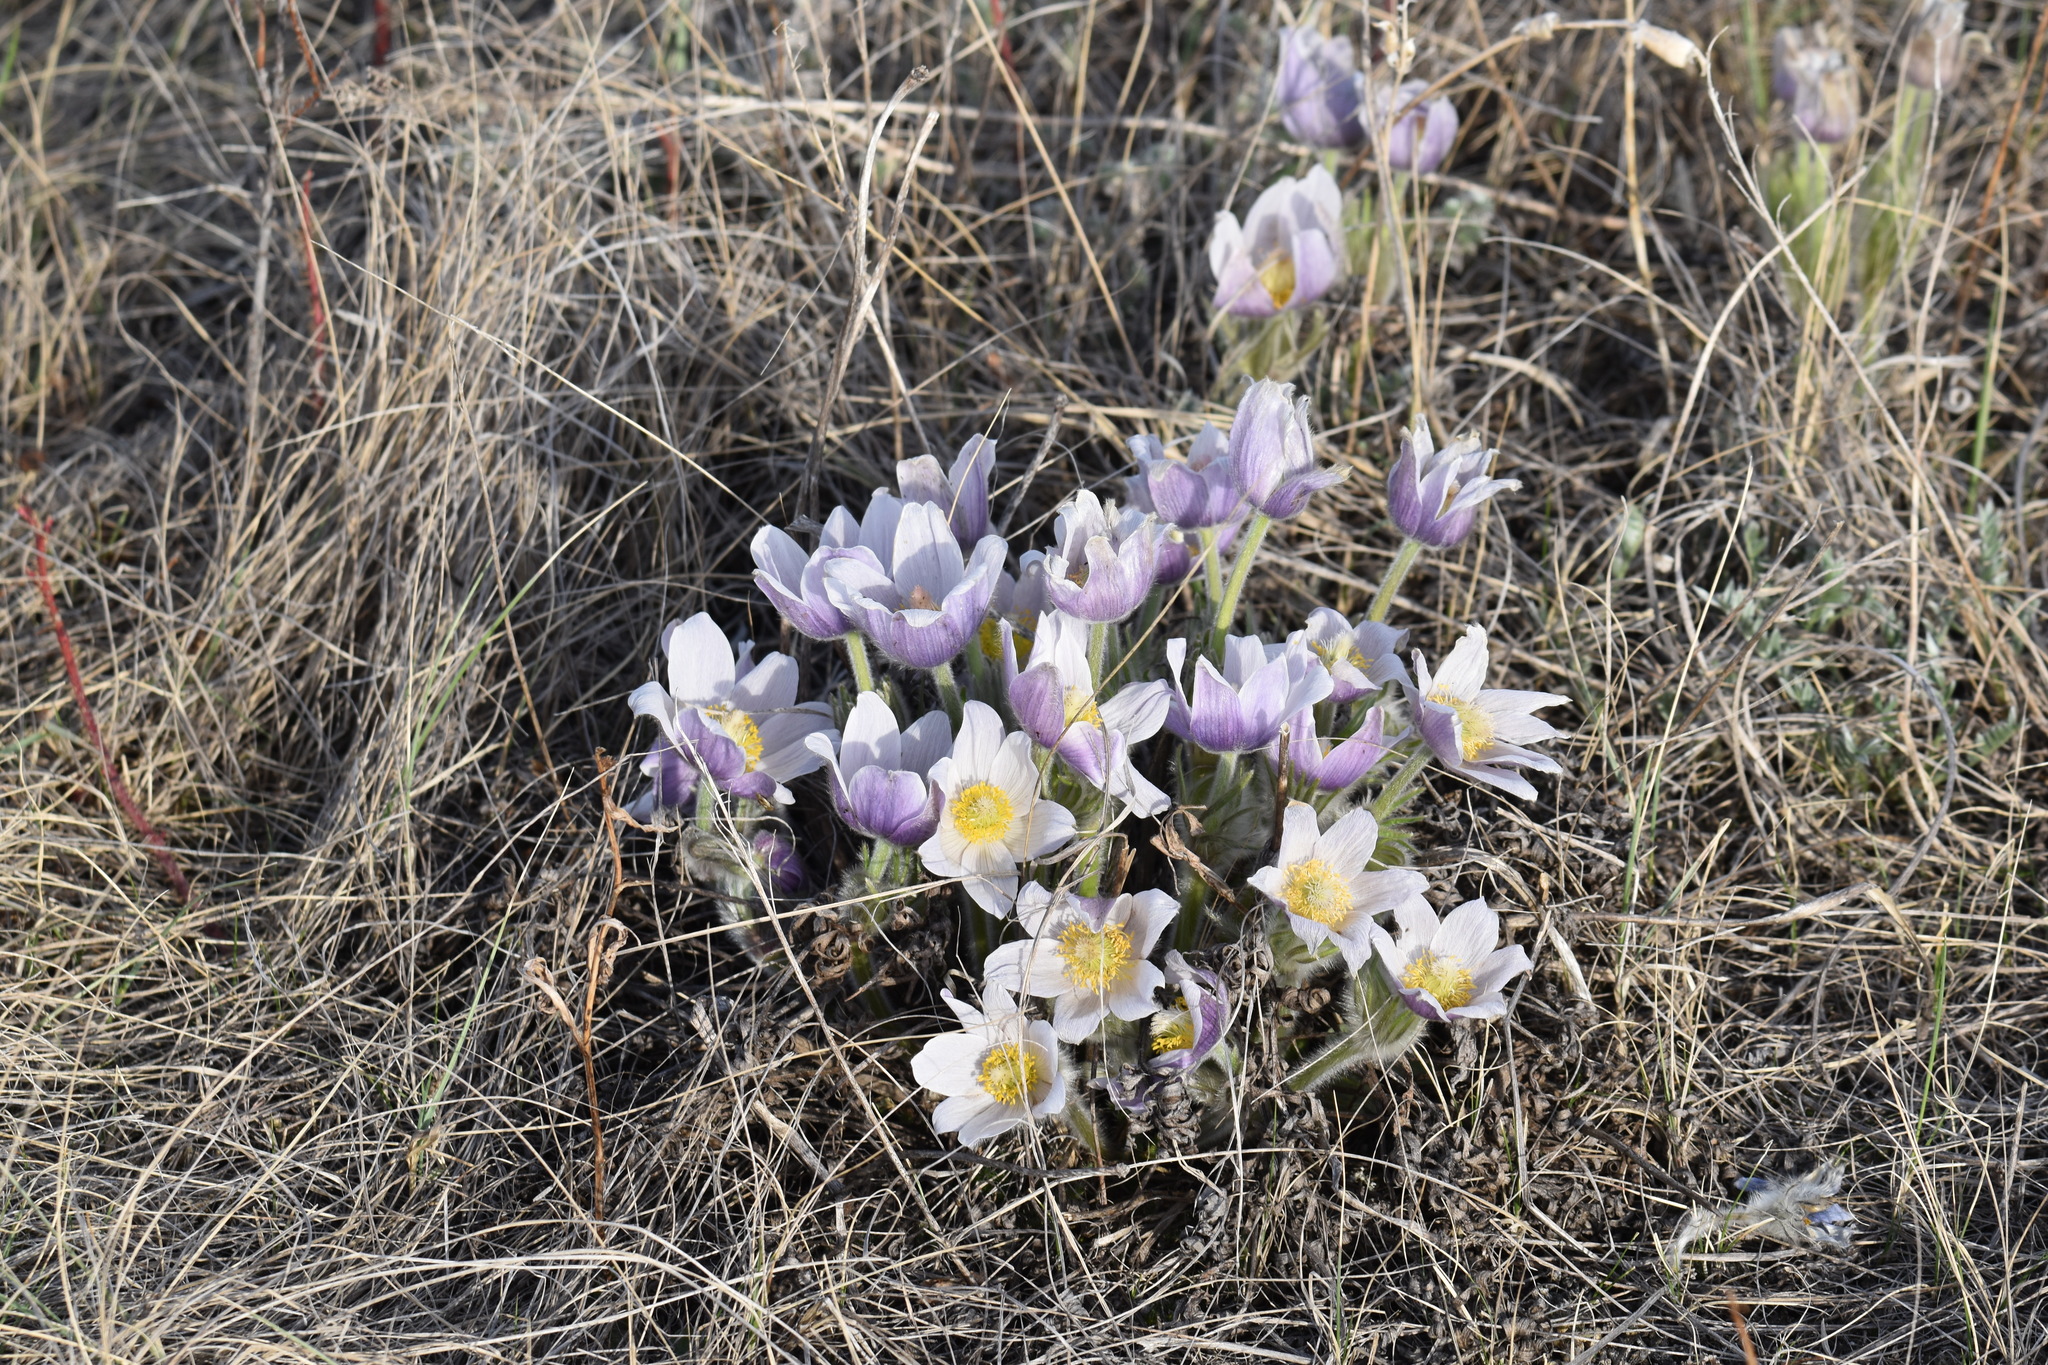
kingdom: Plantae
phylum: Tracheophyta
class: Magnoliopsida
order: Ranunculales
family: Ranunculaceae
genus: Pulsatilla
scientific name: Pulsatilla nuttalliana
